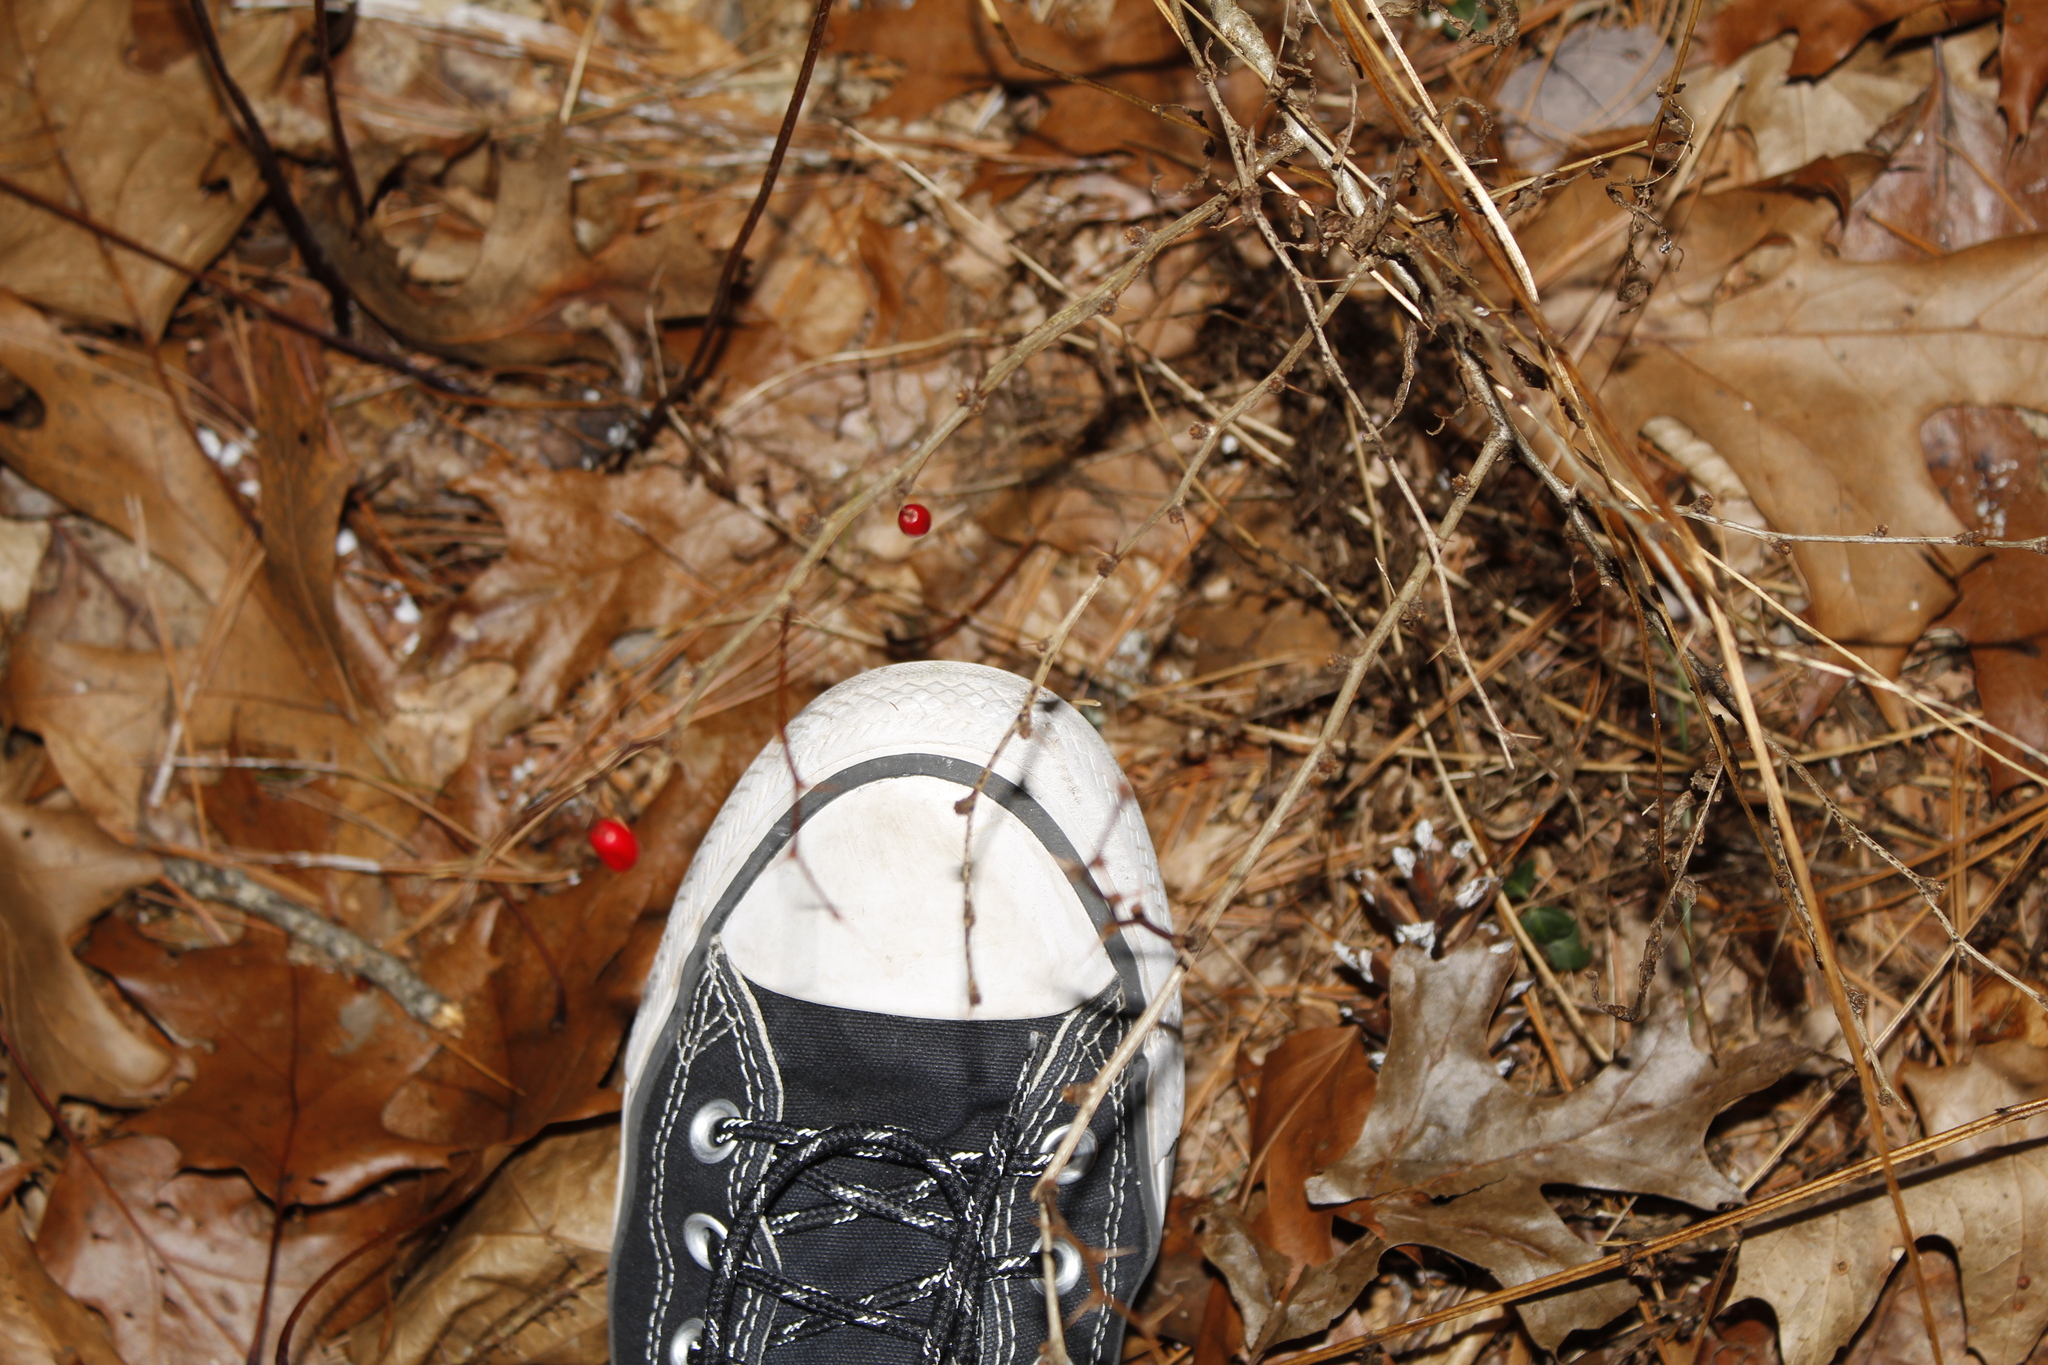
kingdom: Plantae
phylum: Tracheophyta
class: Magnoliopsida
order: Ranunculales
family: Berberidaceae
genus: Berberis
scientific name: Berberis thunbergii
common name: Japanese barberry
